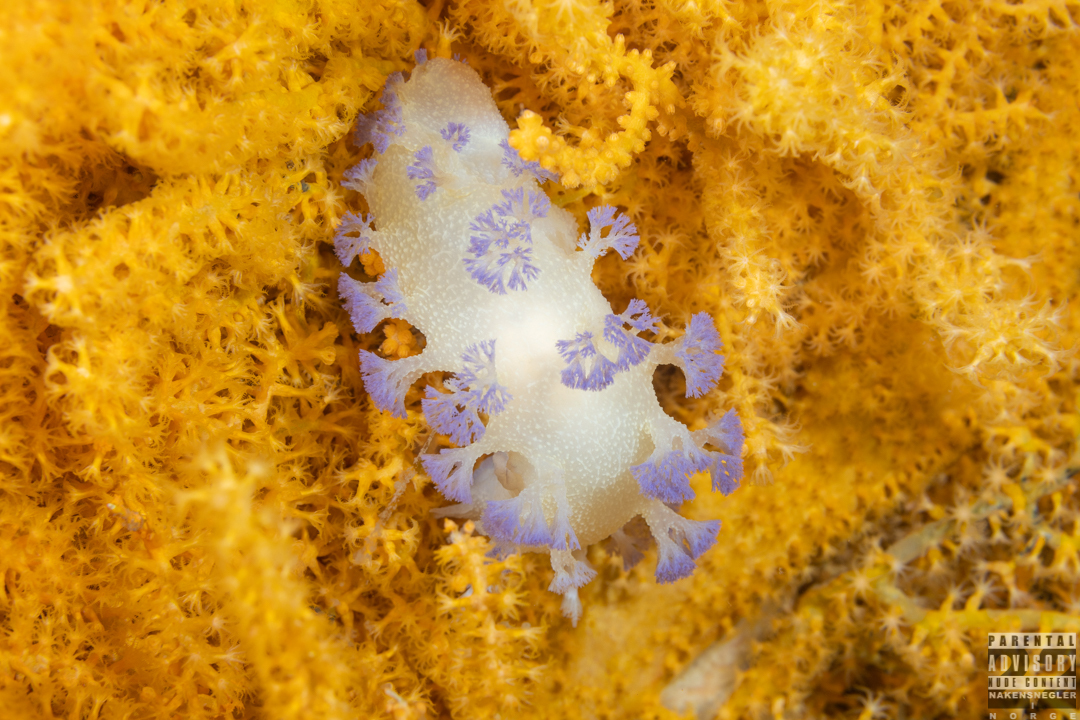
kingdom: Animalia
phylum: Mollusca
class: Gastropoda
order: Nudibranchia
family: Tritoniidae
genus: Tritonia
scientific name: Tritonia griegi
